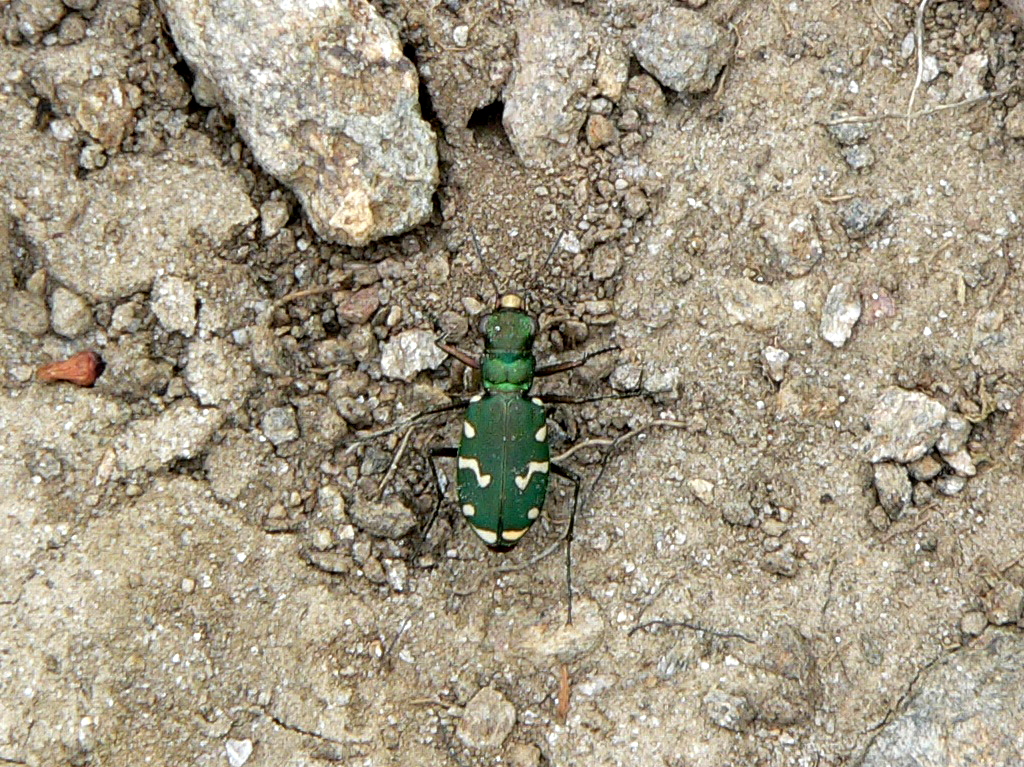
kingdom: Animalia
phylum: Arthropoda
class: Insecta
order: Coleoptera
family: Carabidae
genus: Cicindela
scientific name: Cicindela gallica
